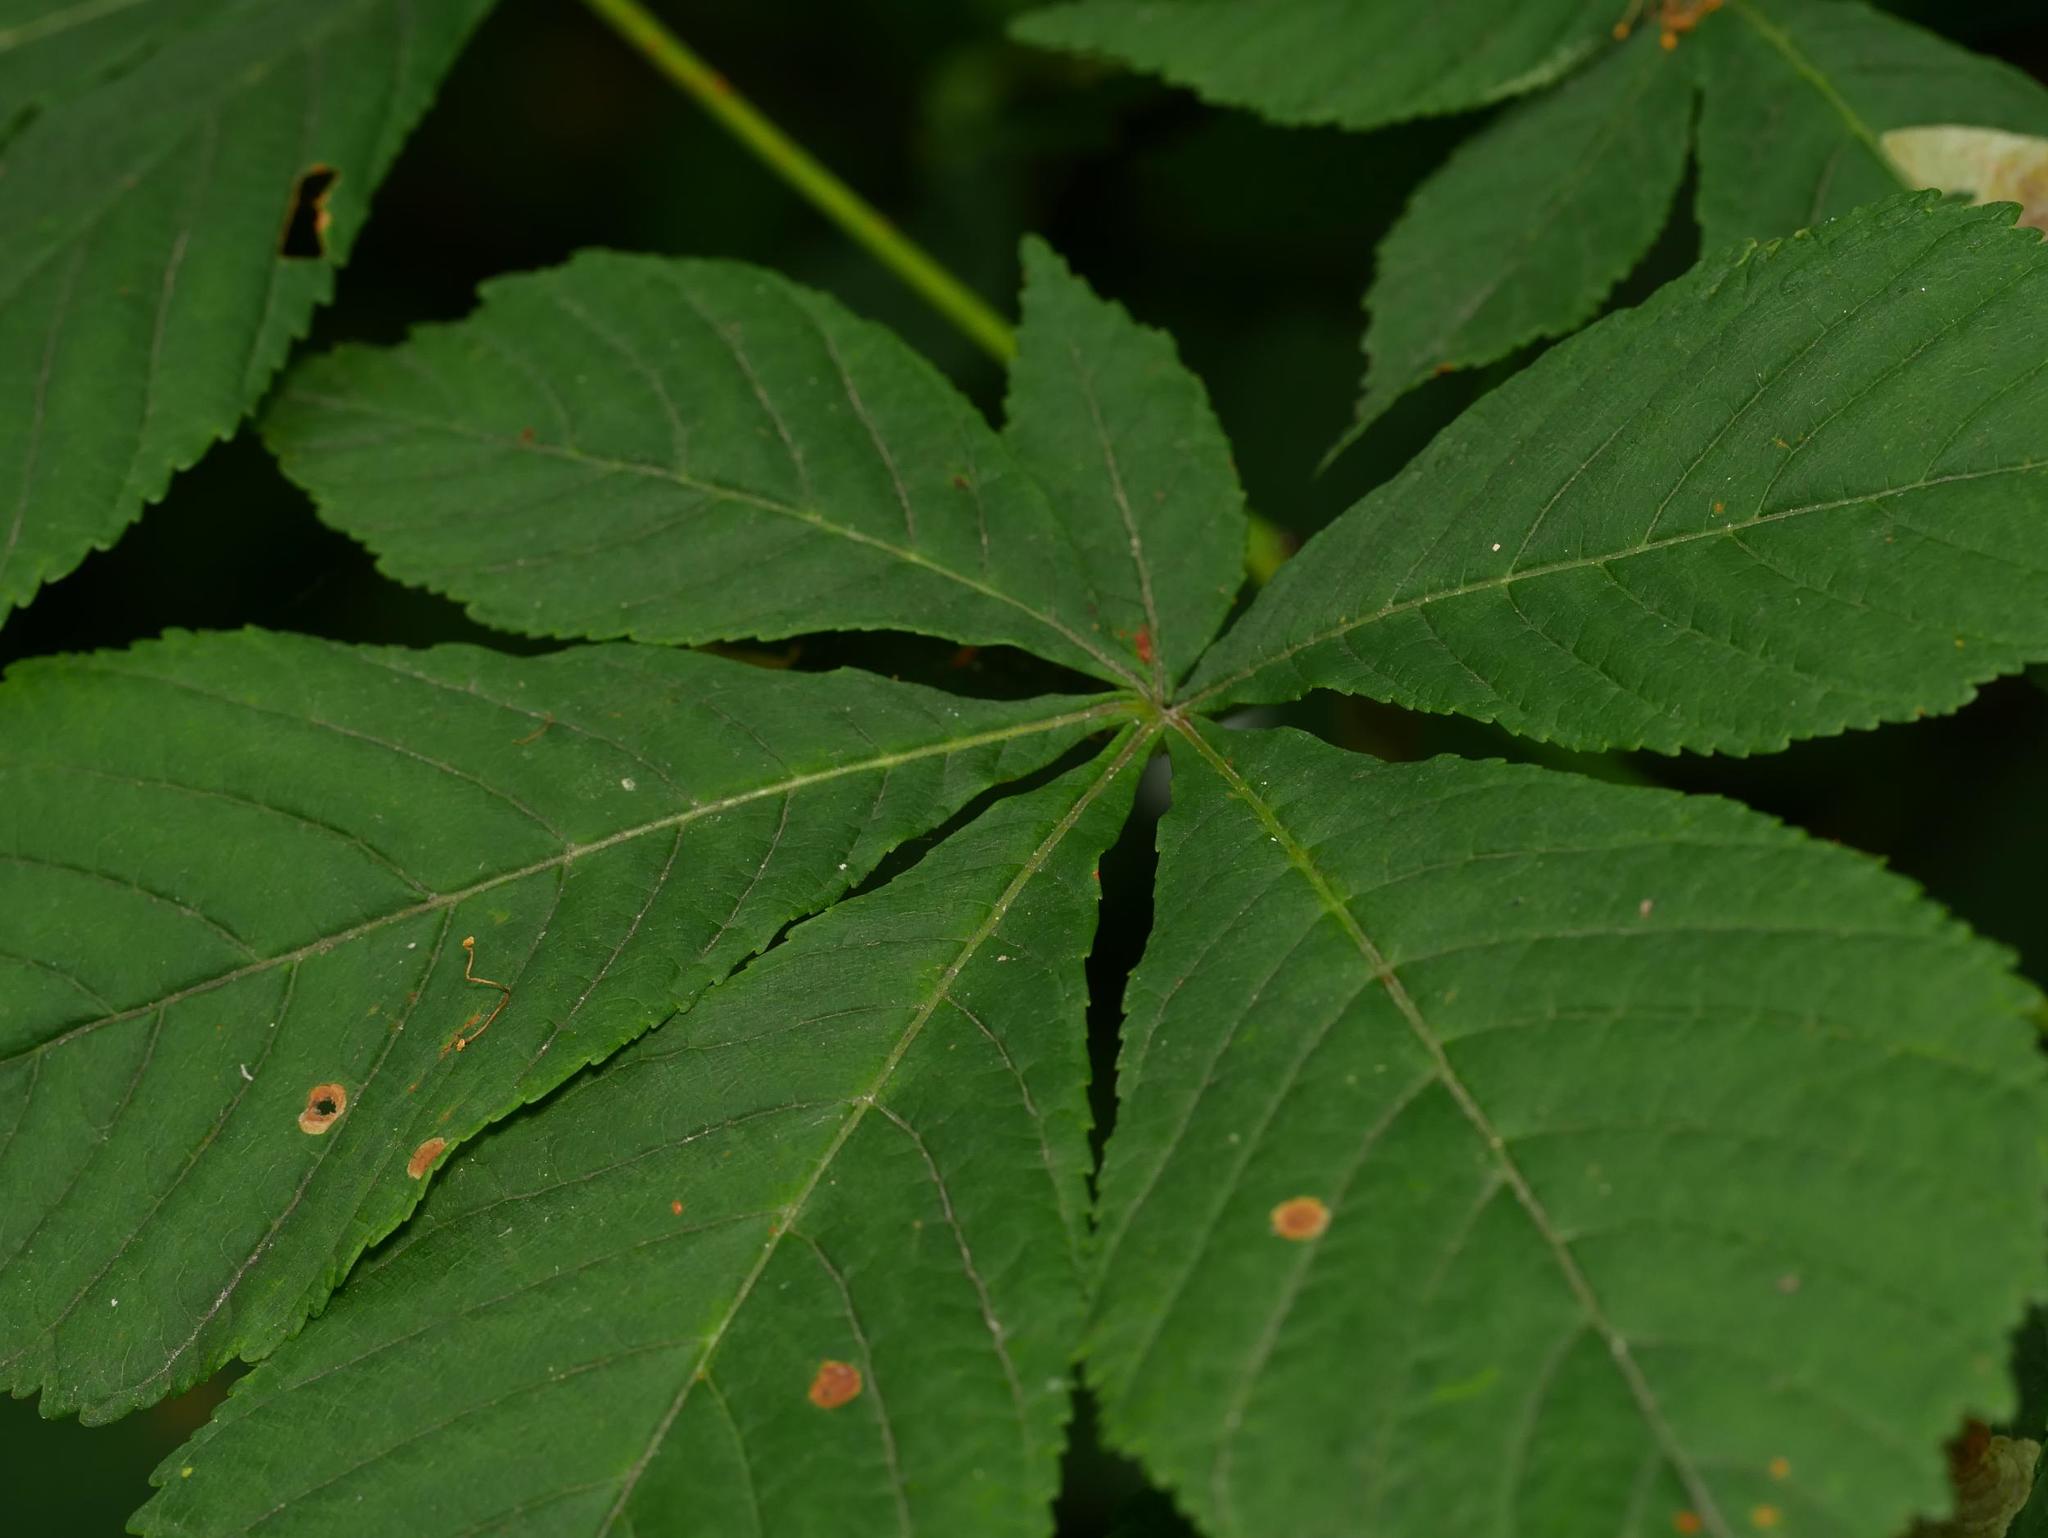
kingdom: Plantae
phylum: Tracheophyta
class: Magnoliopsida
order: Sapindales
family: Sapindaceae
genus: Aesculus
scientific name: Aesculus hippocastanum
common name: Horse-chestnut
